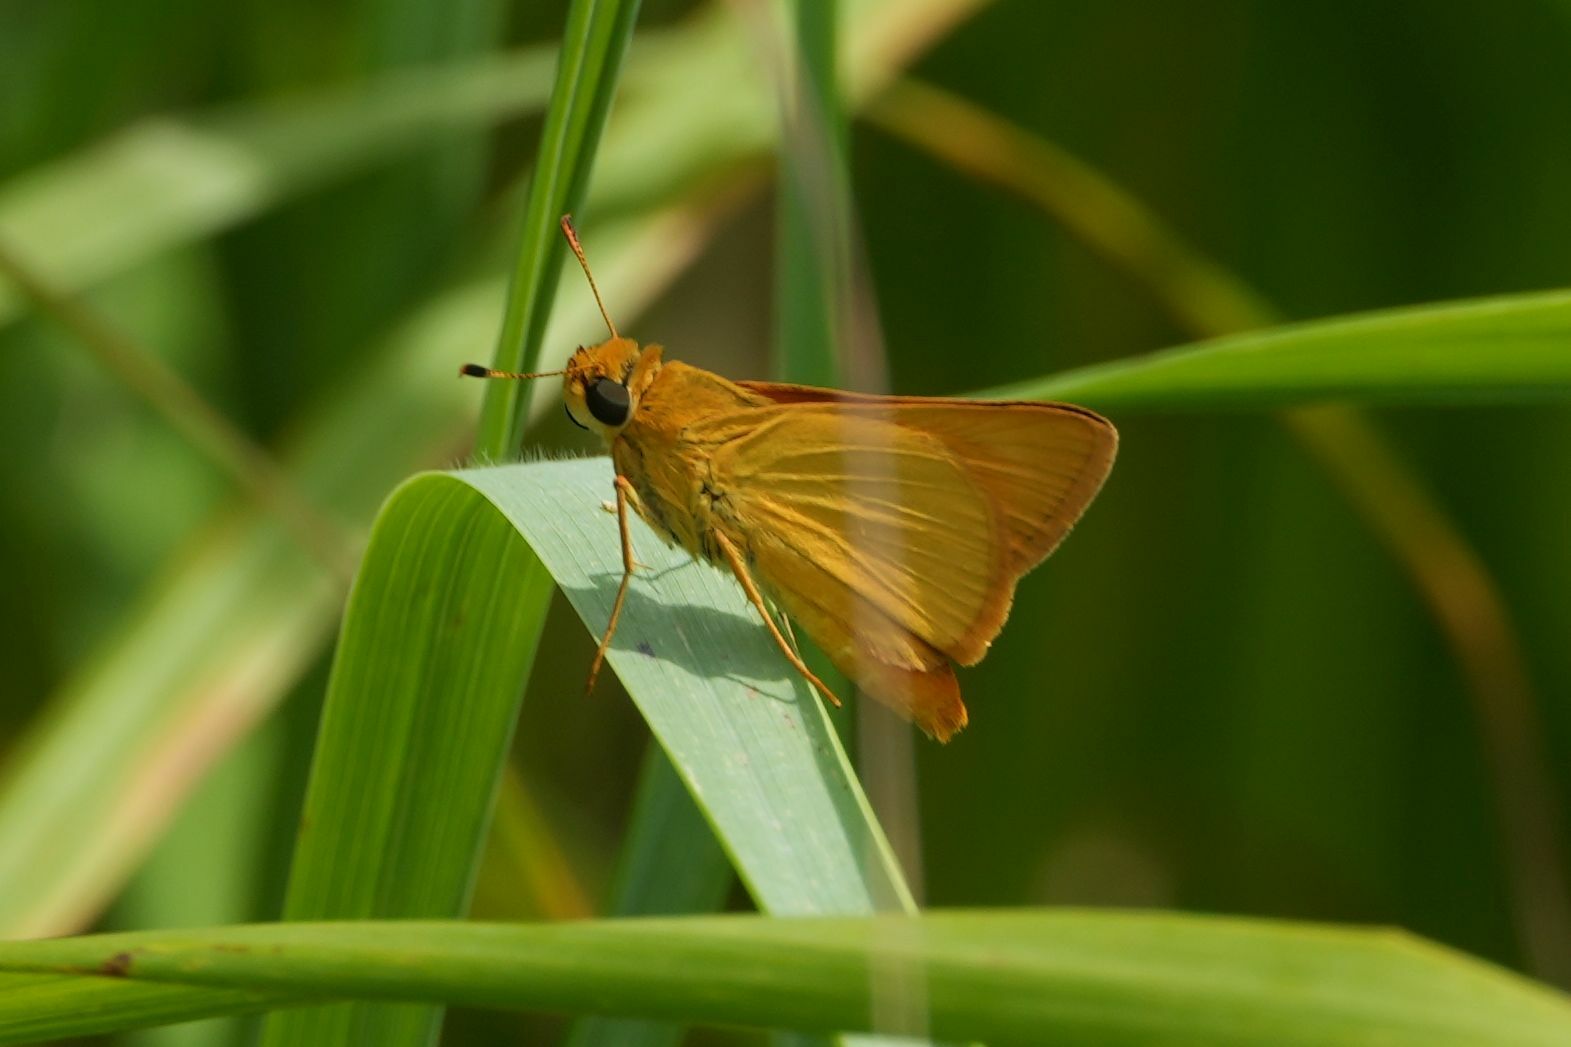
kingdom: Animalia
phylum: Arthropoda
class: Insecta
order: Lepidoptera
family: Hesperiidae
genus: Atrytone
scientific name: Atrytone delaware
